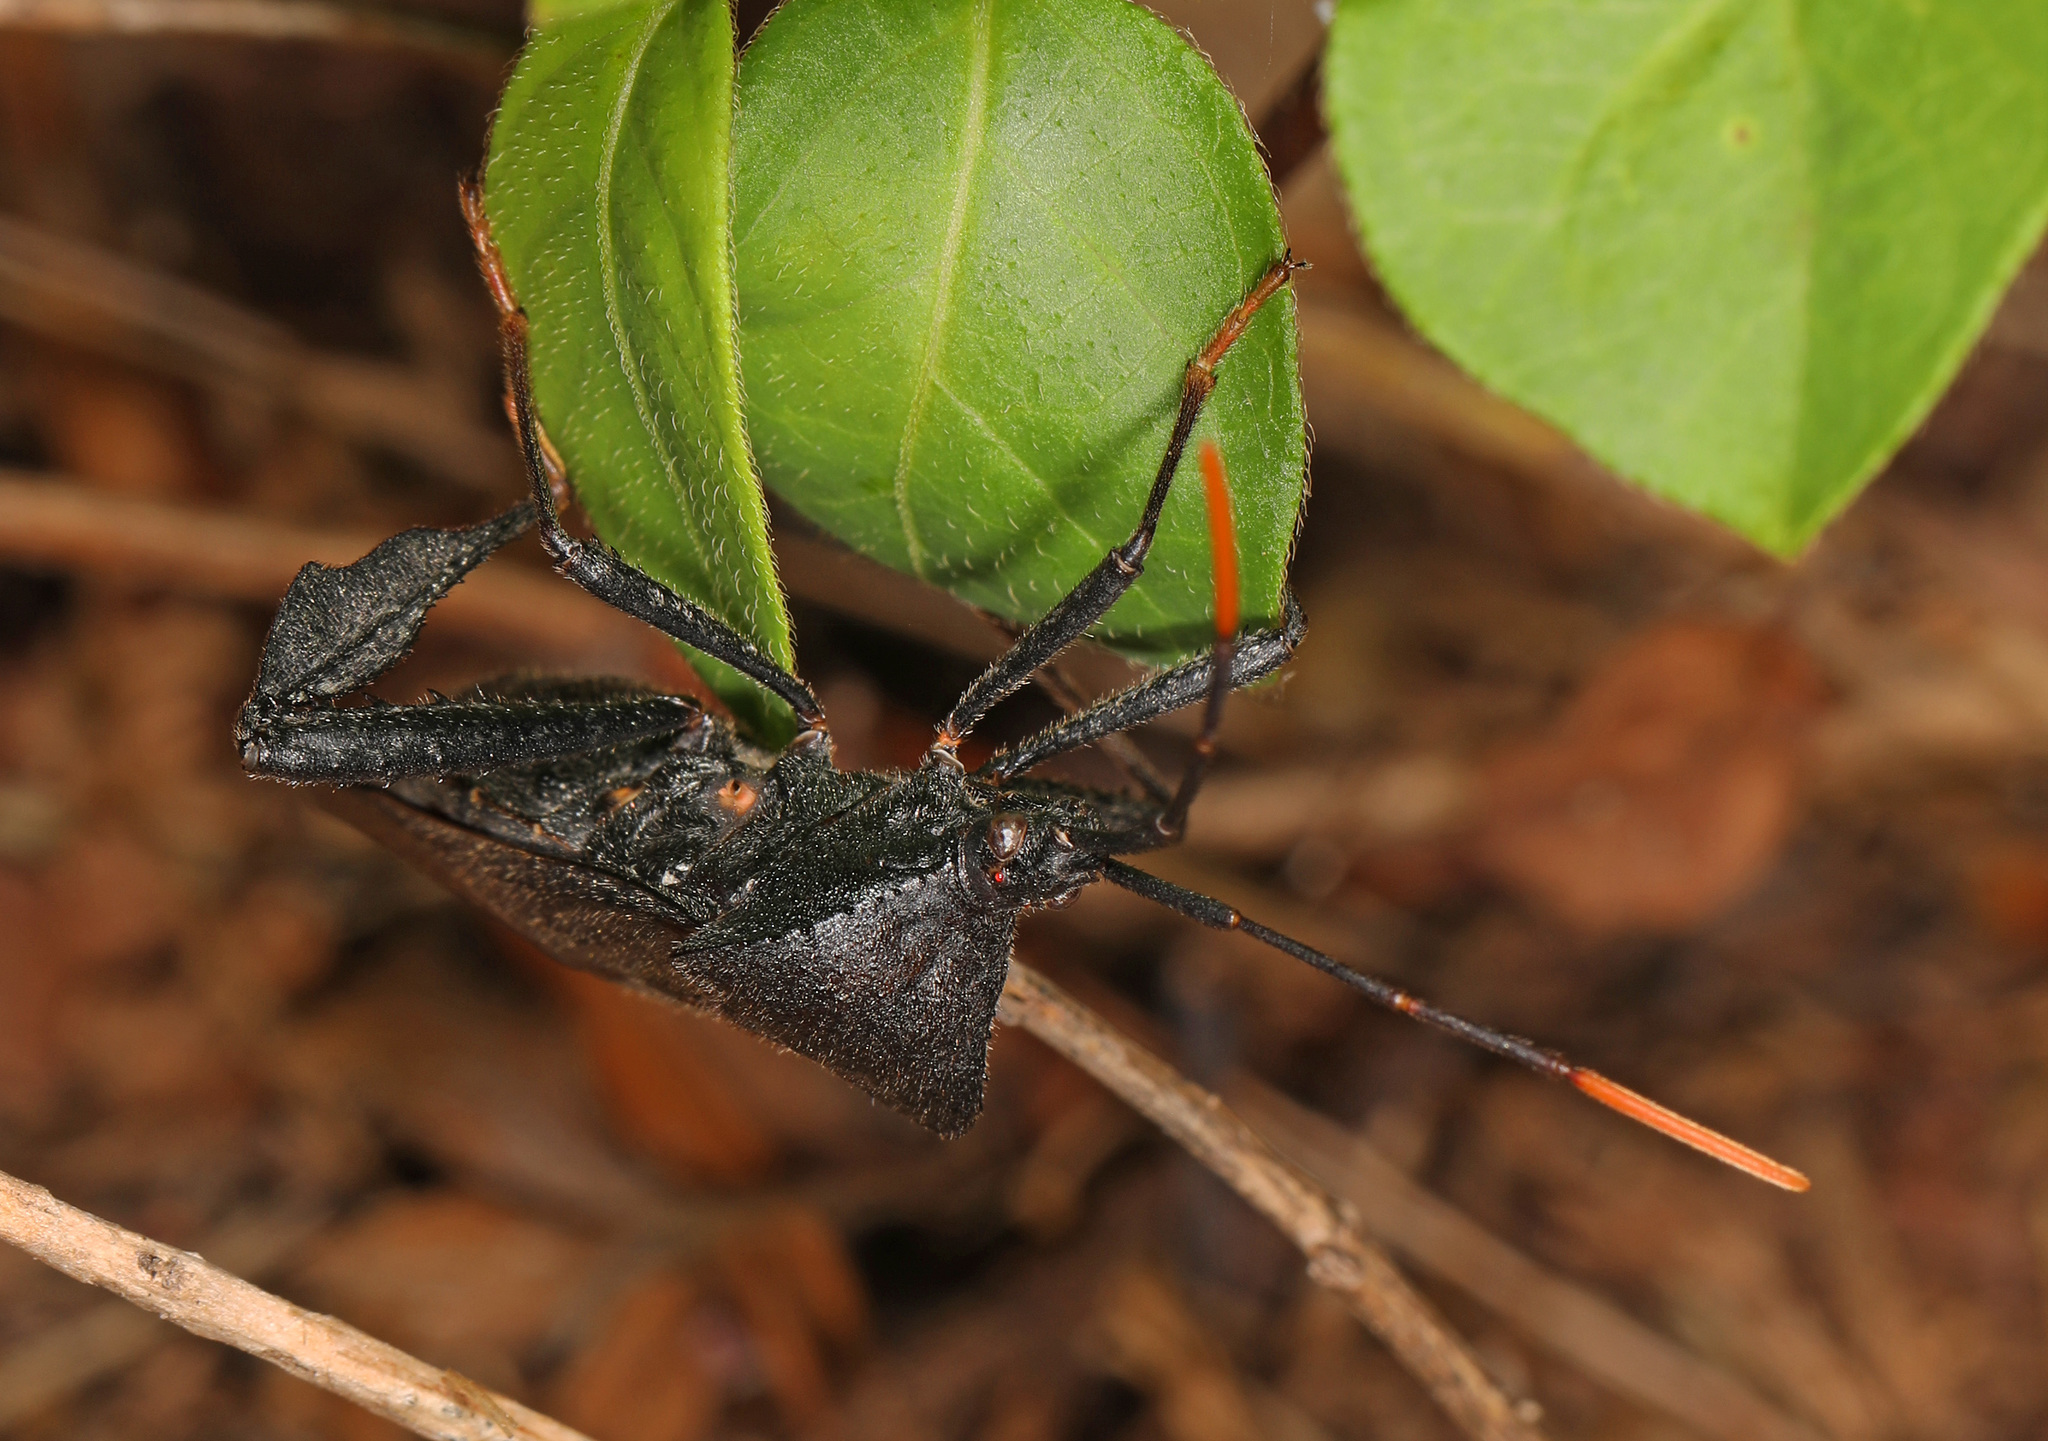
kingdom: Animalia
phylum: Arthropoda
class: Insecta
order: Hemiptera
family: Coreidae
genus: Acanthocephala
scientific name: Acanthocephala terminalis
